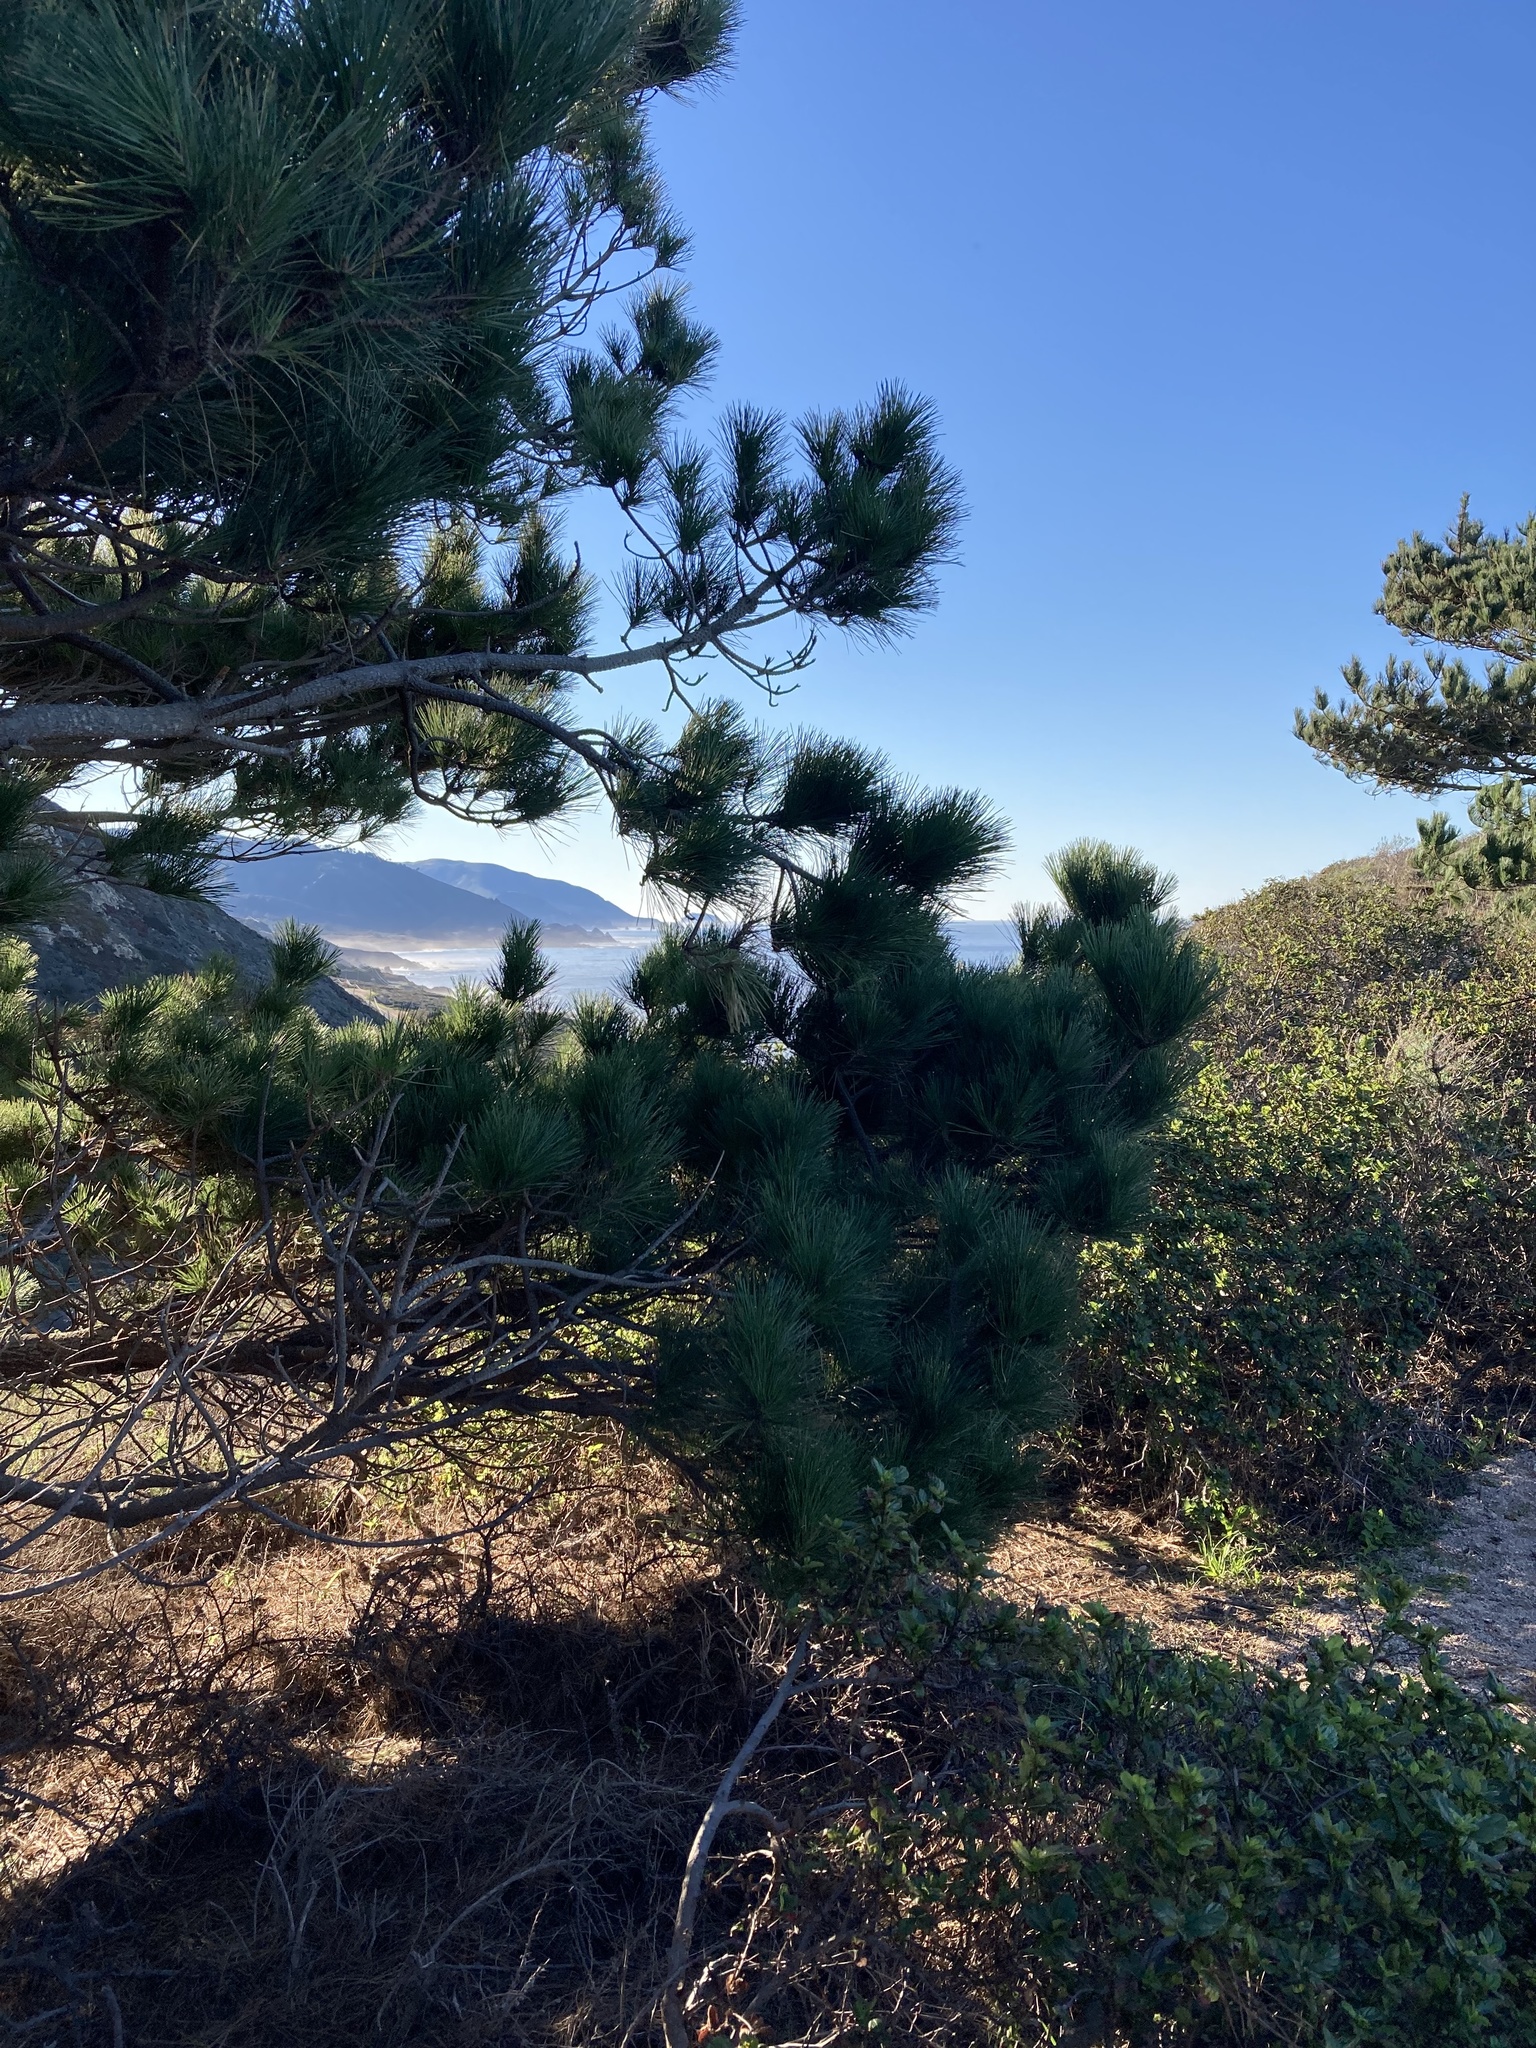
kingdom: Plantae
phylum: Tracheophyta
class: Pinopsida
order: Pinales
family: Pinaceae
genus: Pinus
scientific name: Pinus radiata
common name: Monterey pine
